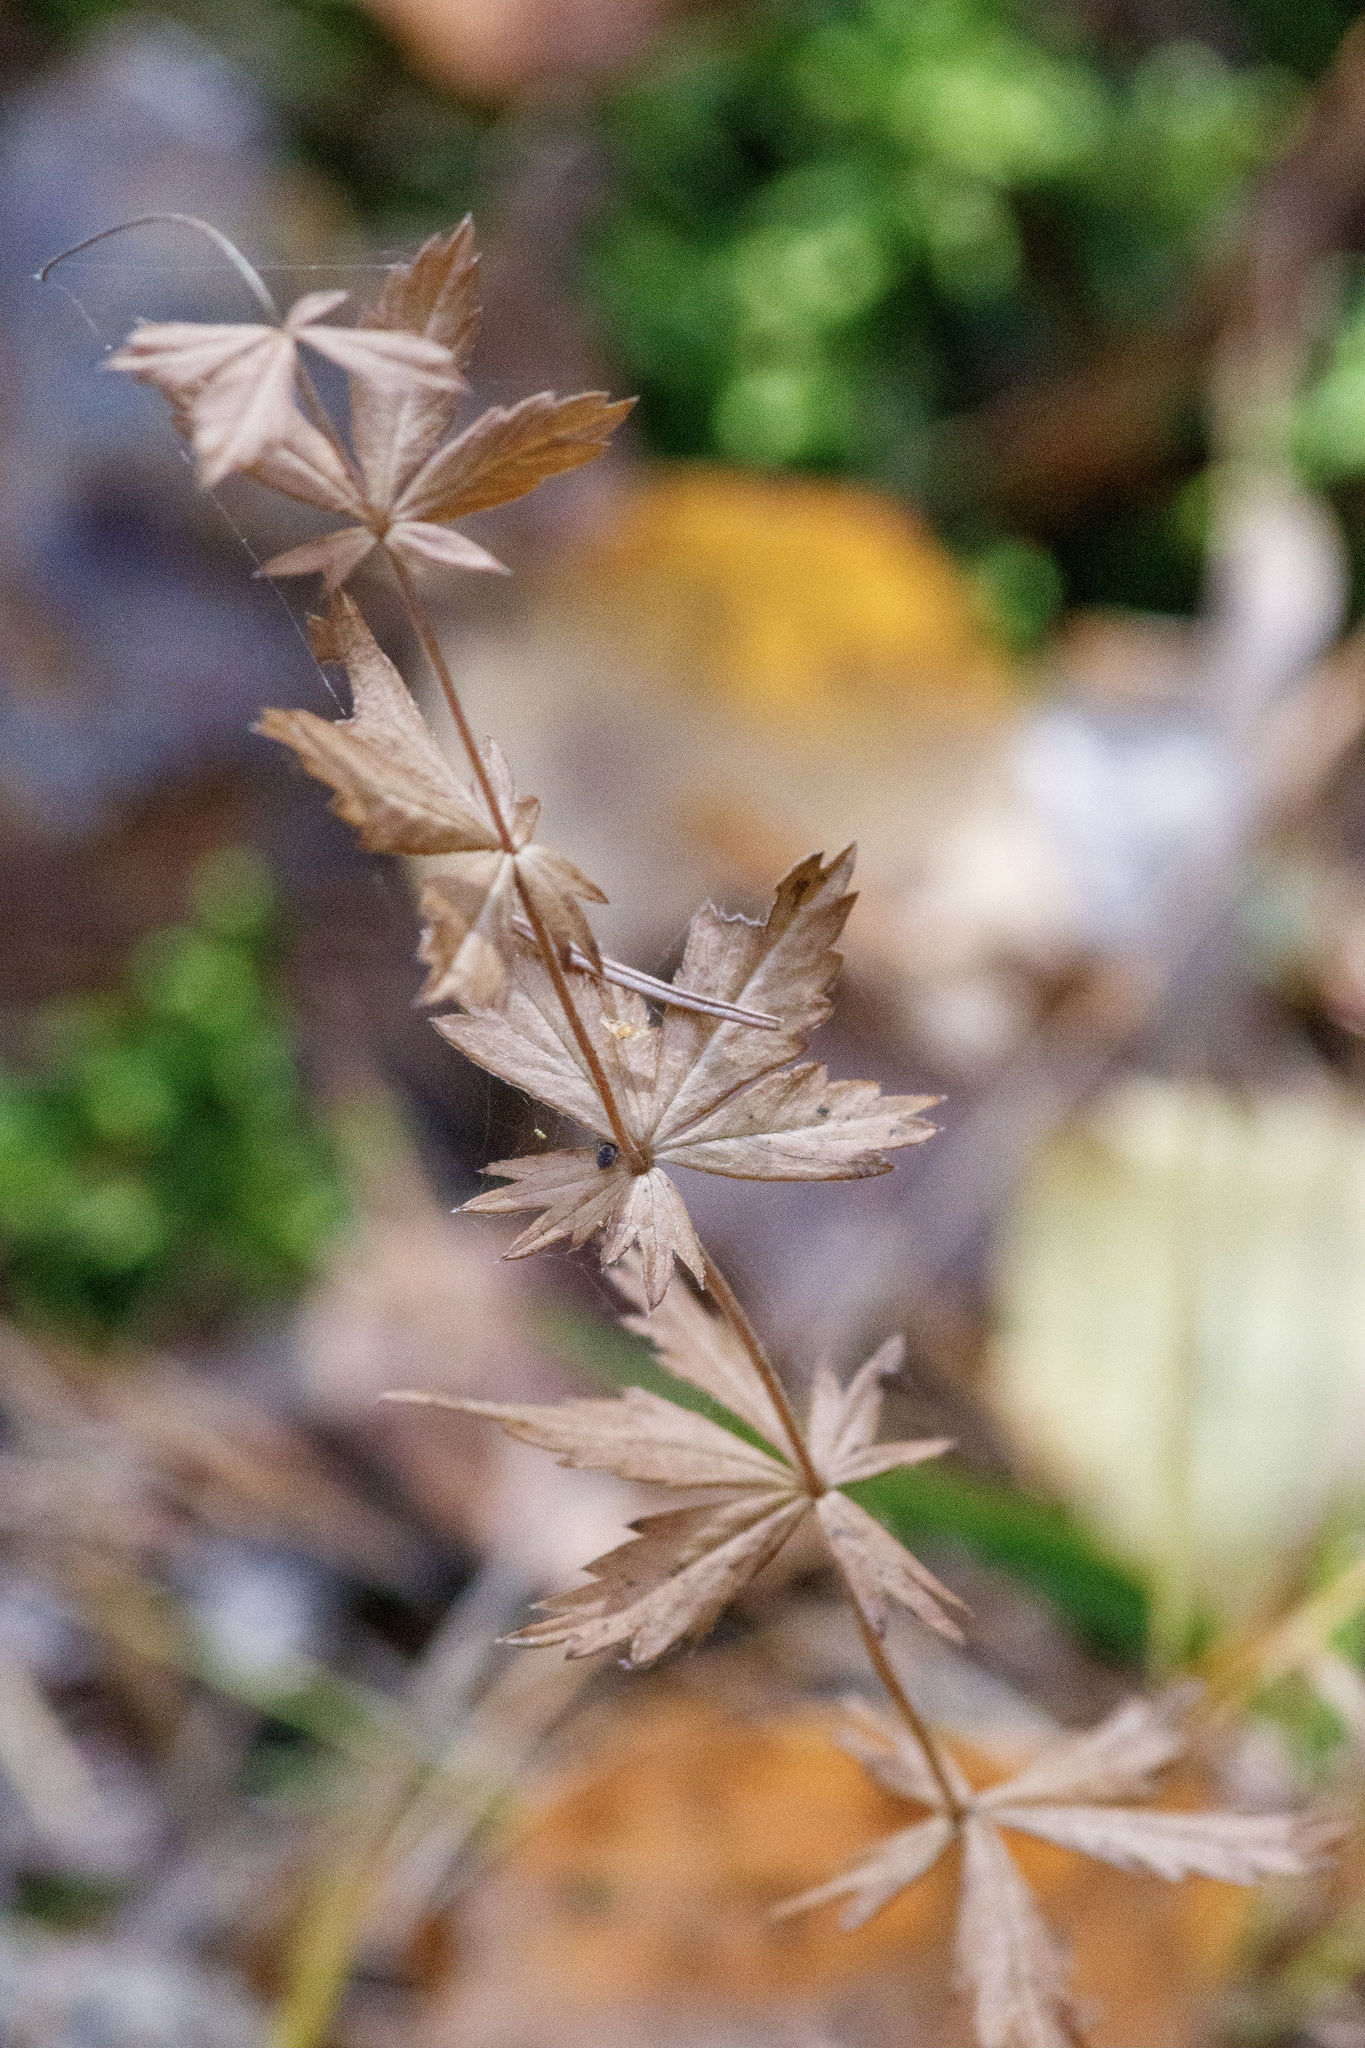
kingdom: Plantae
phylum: Tracheophyta
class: Magnoliopsida
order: Rosales
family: Rosaceae
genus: Potentilla
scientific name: Potentilla erecta
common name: Tormentil
